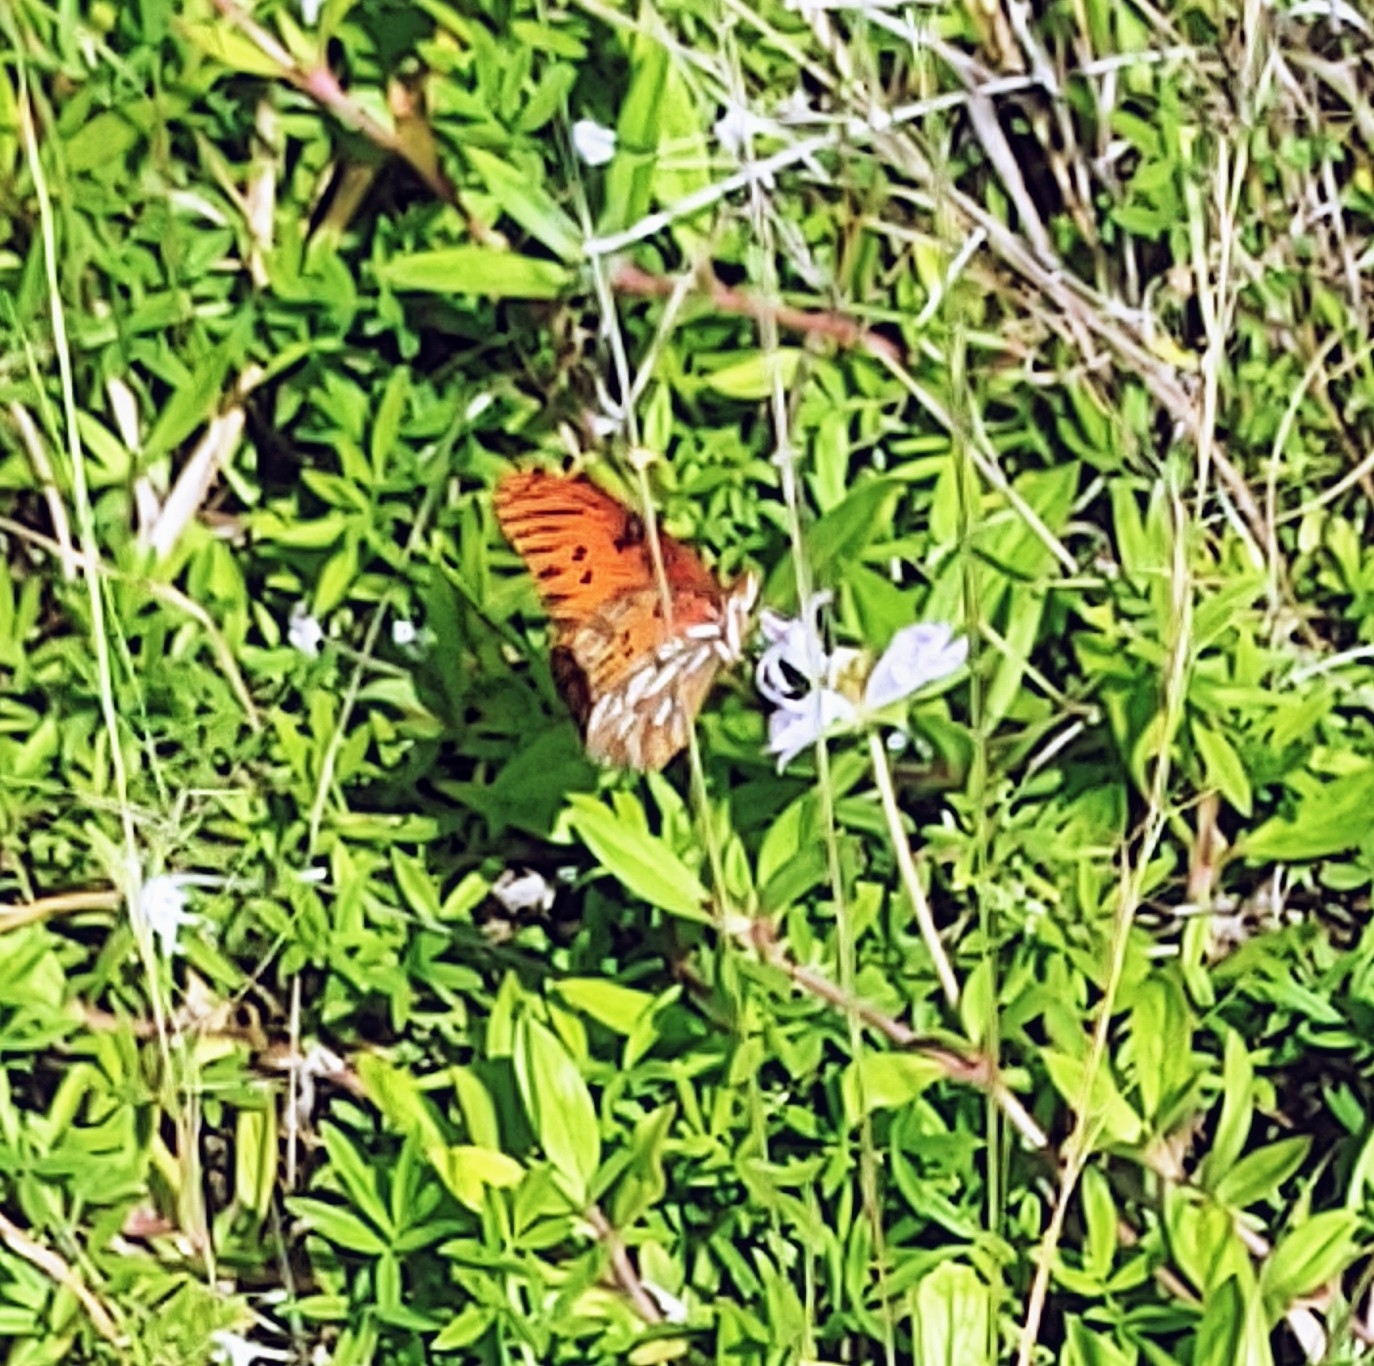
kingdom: Animalia
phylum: Arthropoda
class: Insecta
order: Lepidoptera
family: Nymphalidae
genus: Dione
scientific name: Dione vanillae
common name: Gulf fritillary
